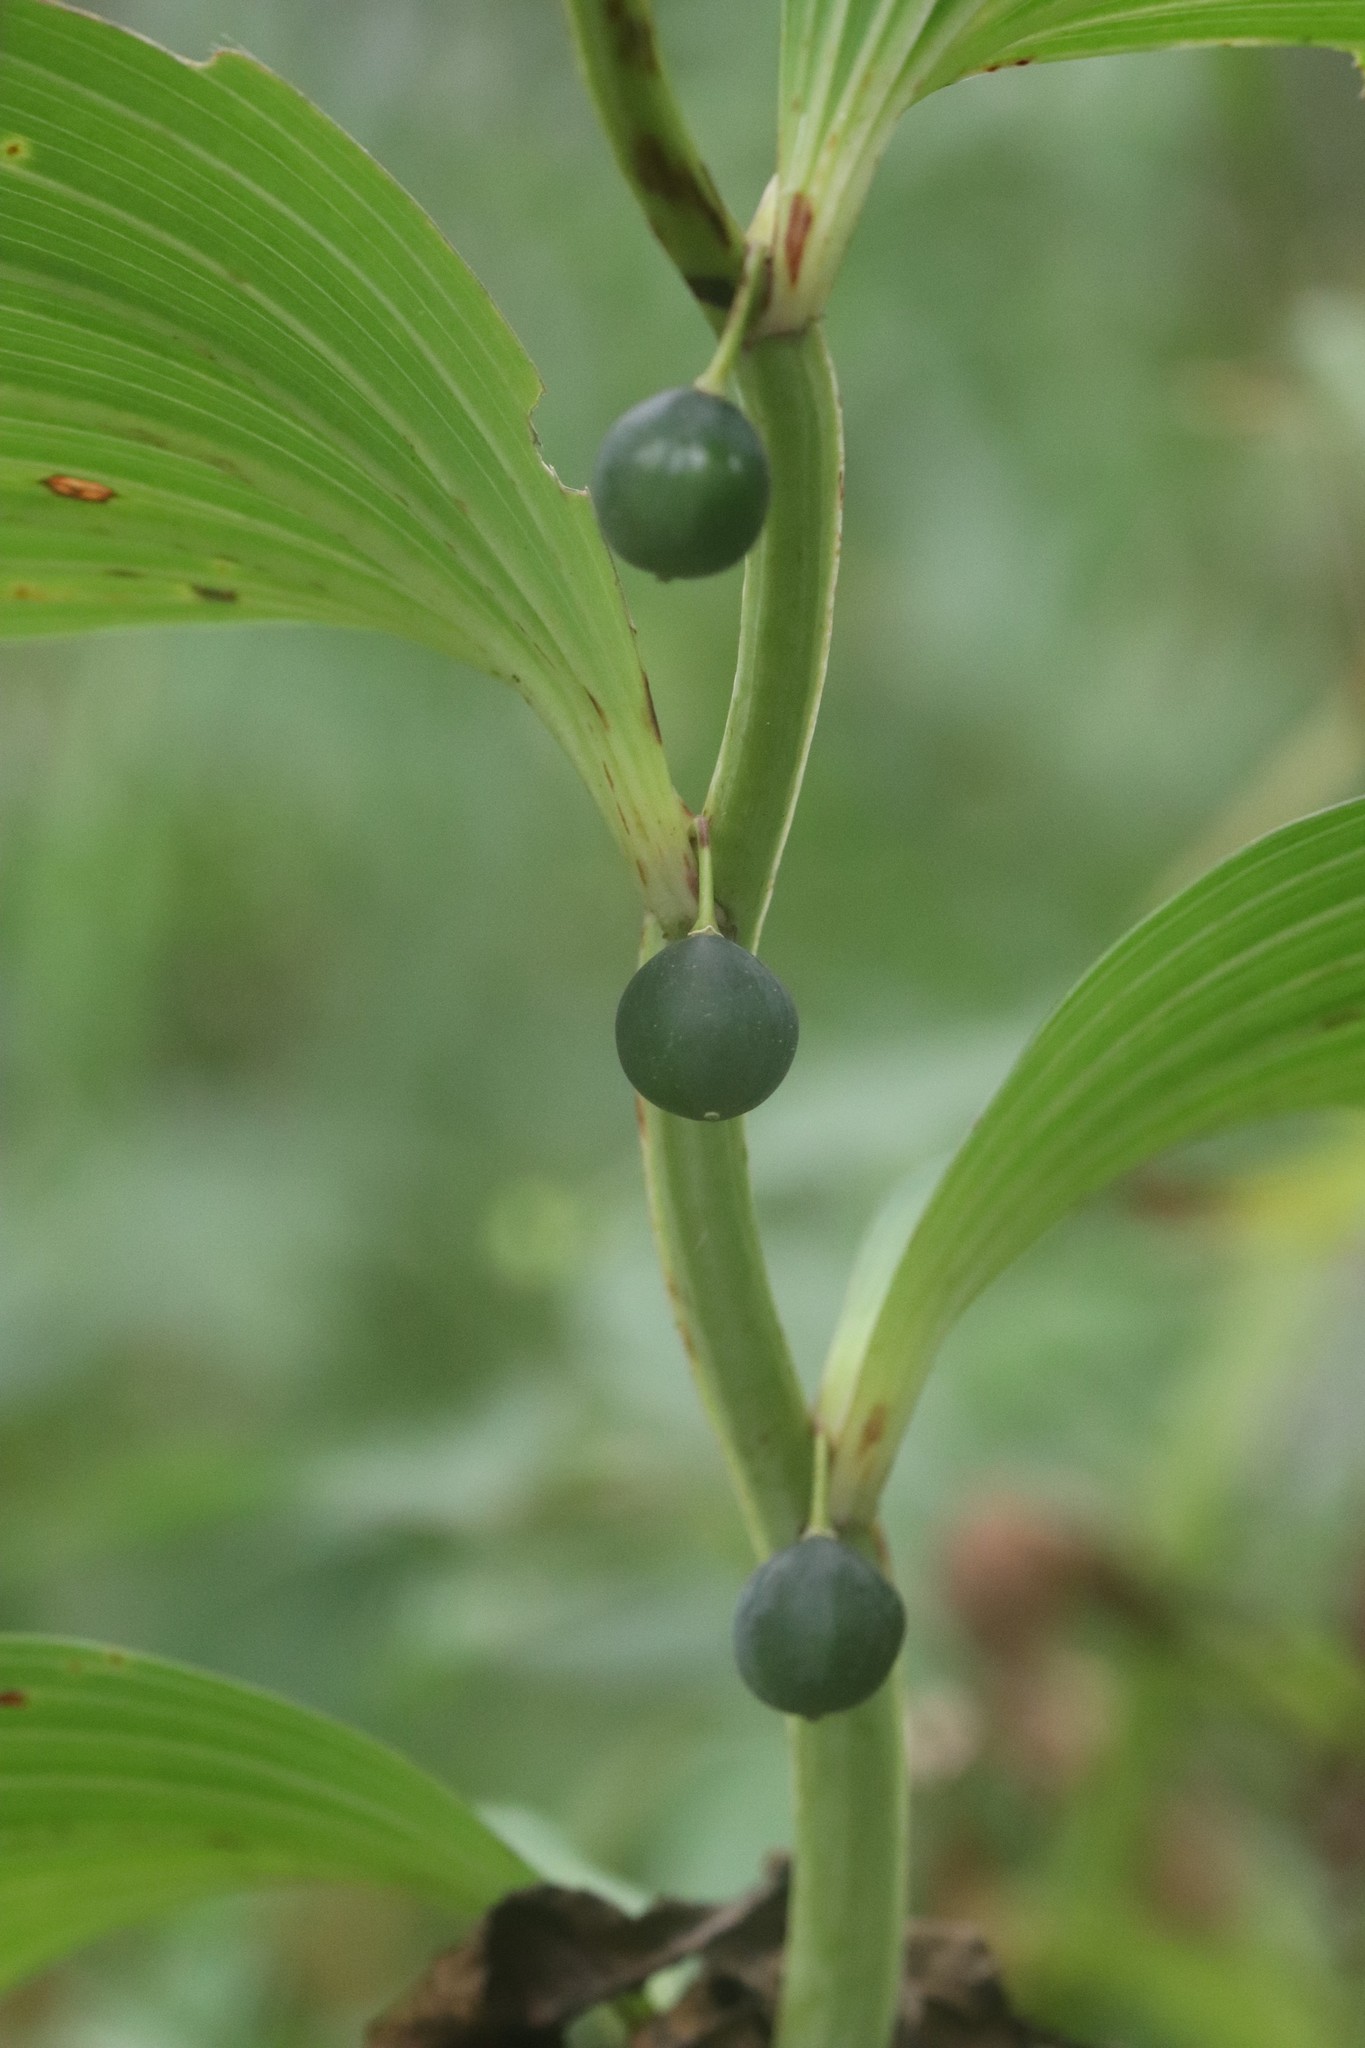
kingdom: Plantae
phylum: Tracheophyta
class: Liliopsida
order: Asparagales
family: Asparagaceae
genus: Polygonatum
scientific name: Polygonatum odoratum
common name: Angular solomon's-seal
